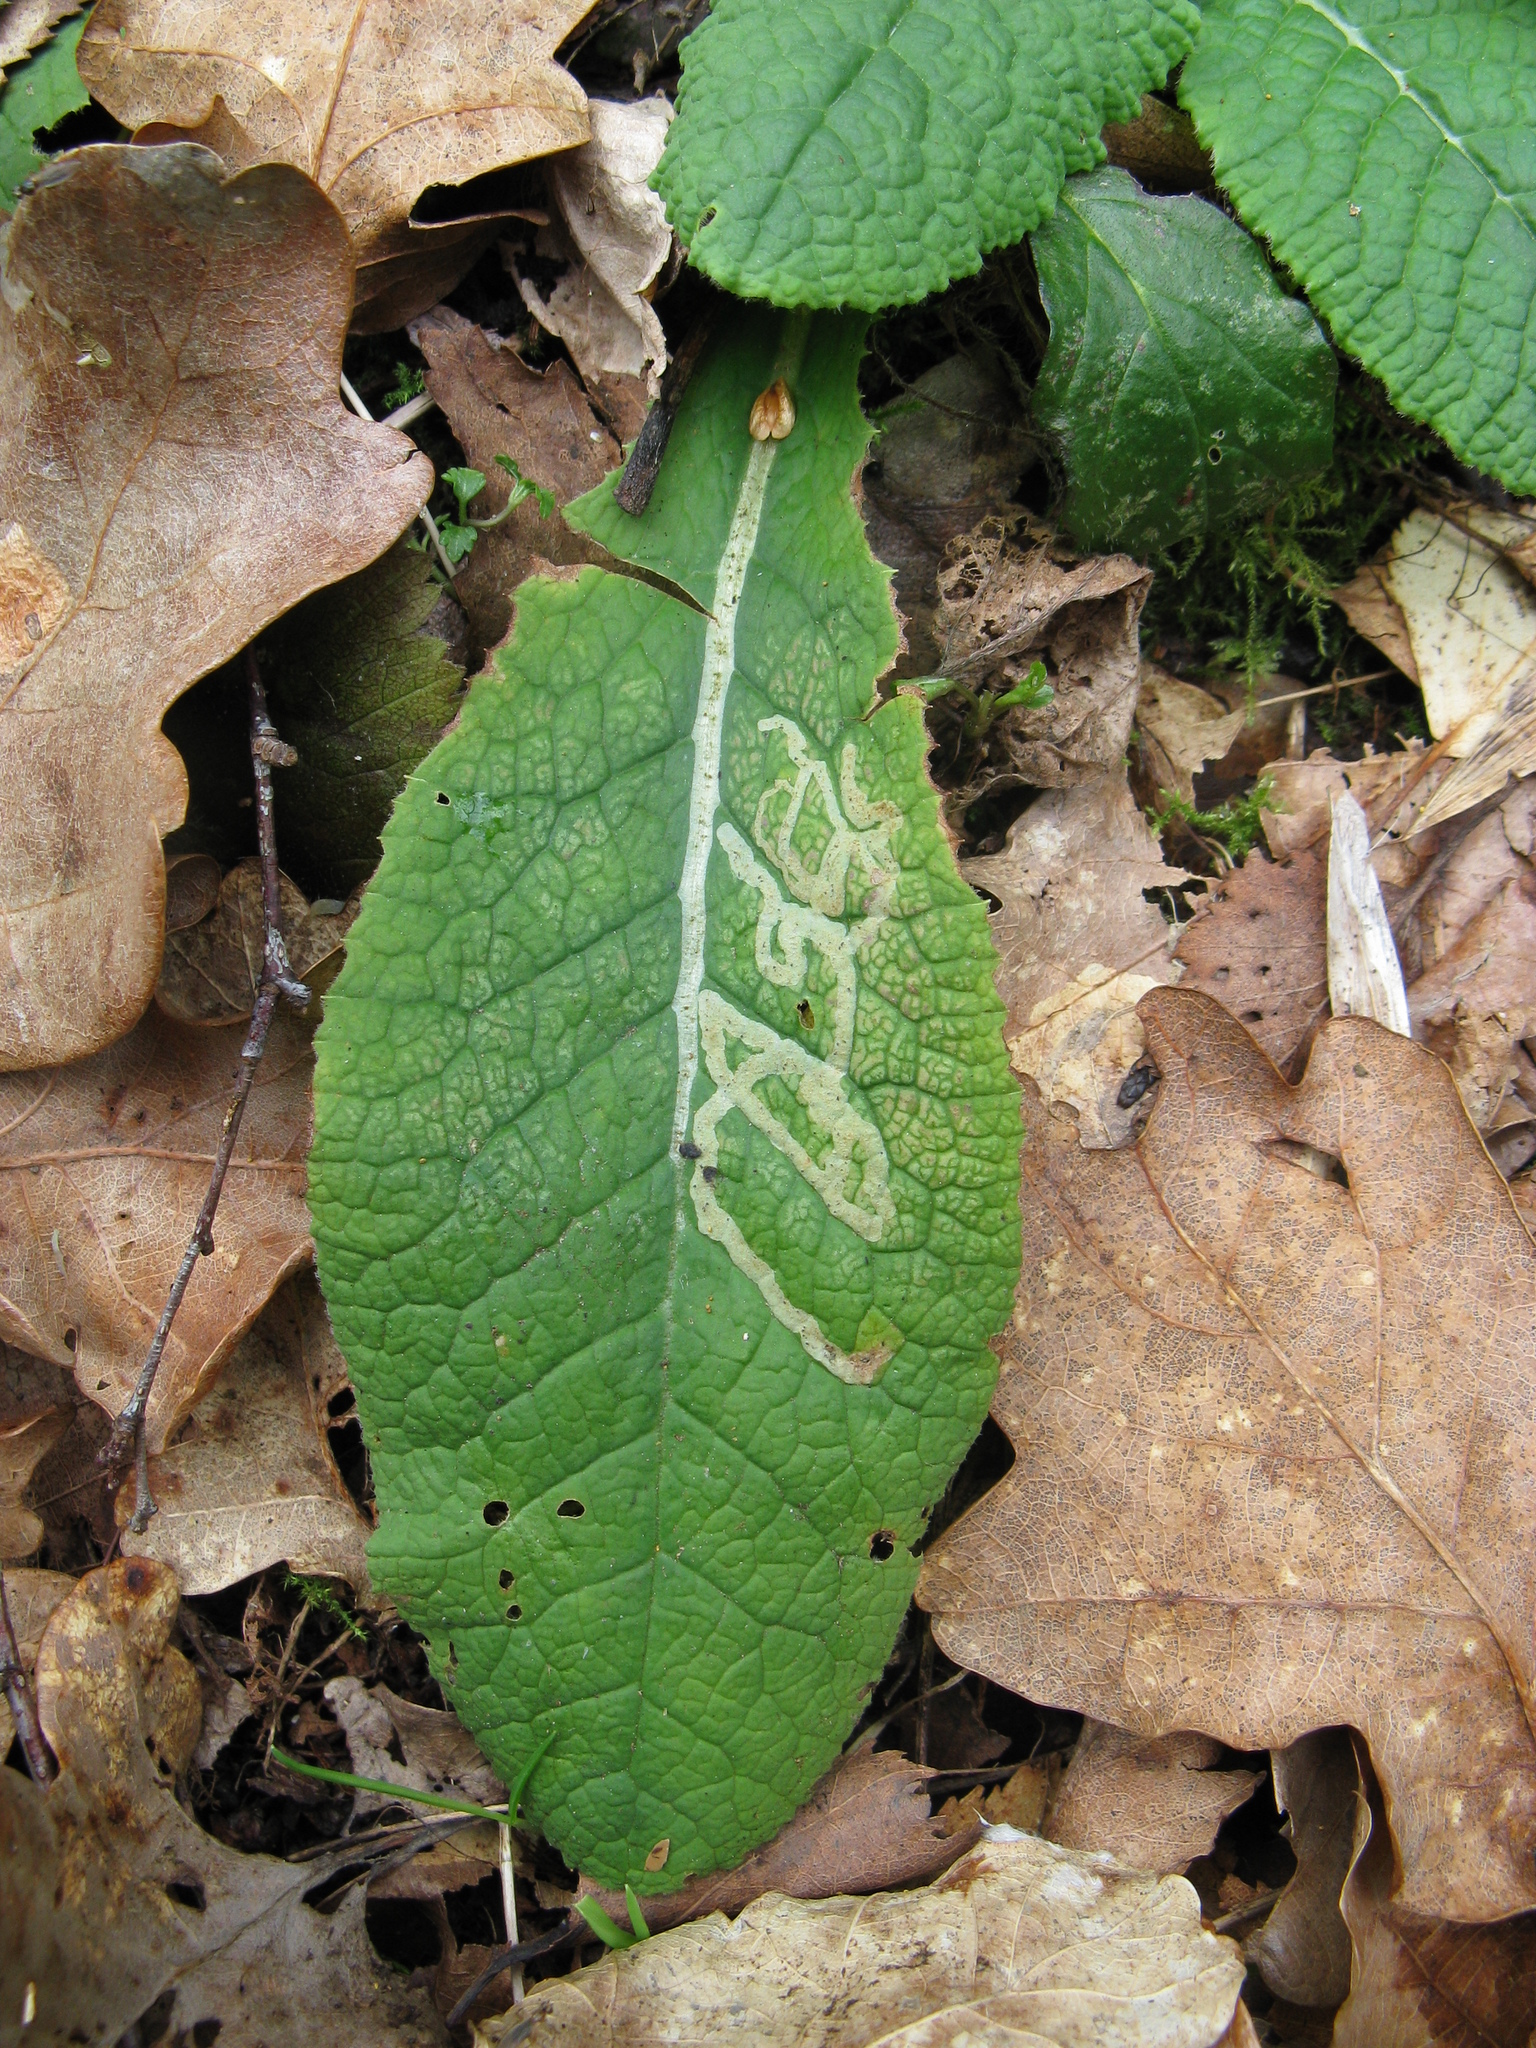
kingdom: Animalia
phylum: Arthropoda
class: Insecta
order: Diptera
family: Agromyzidae
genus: Phytomyza
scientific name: Phytomyza primulae
